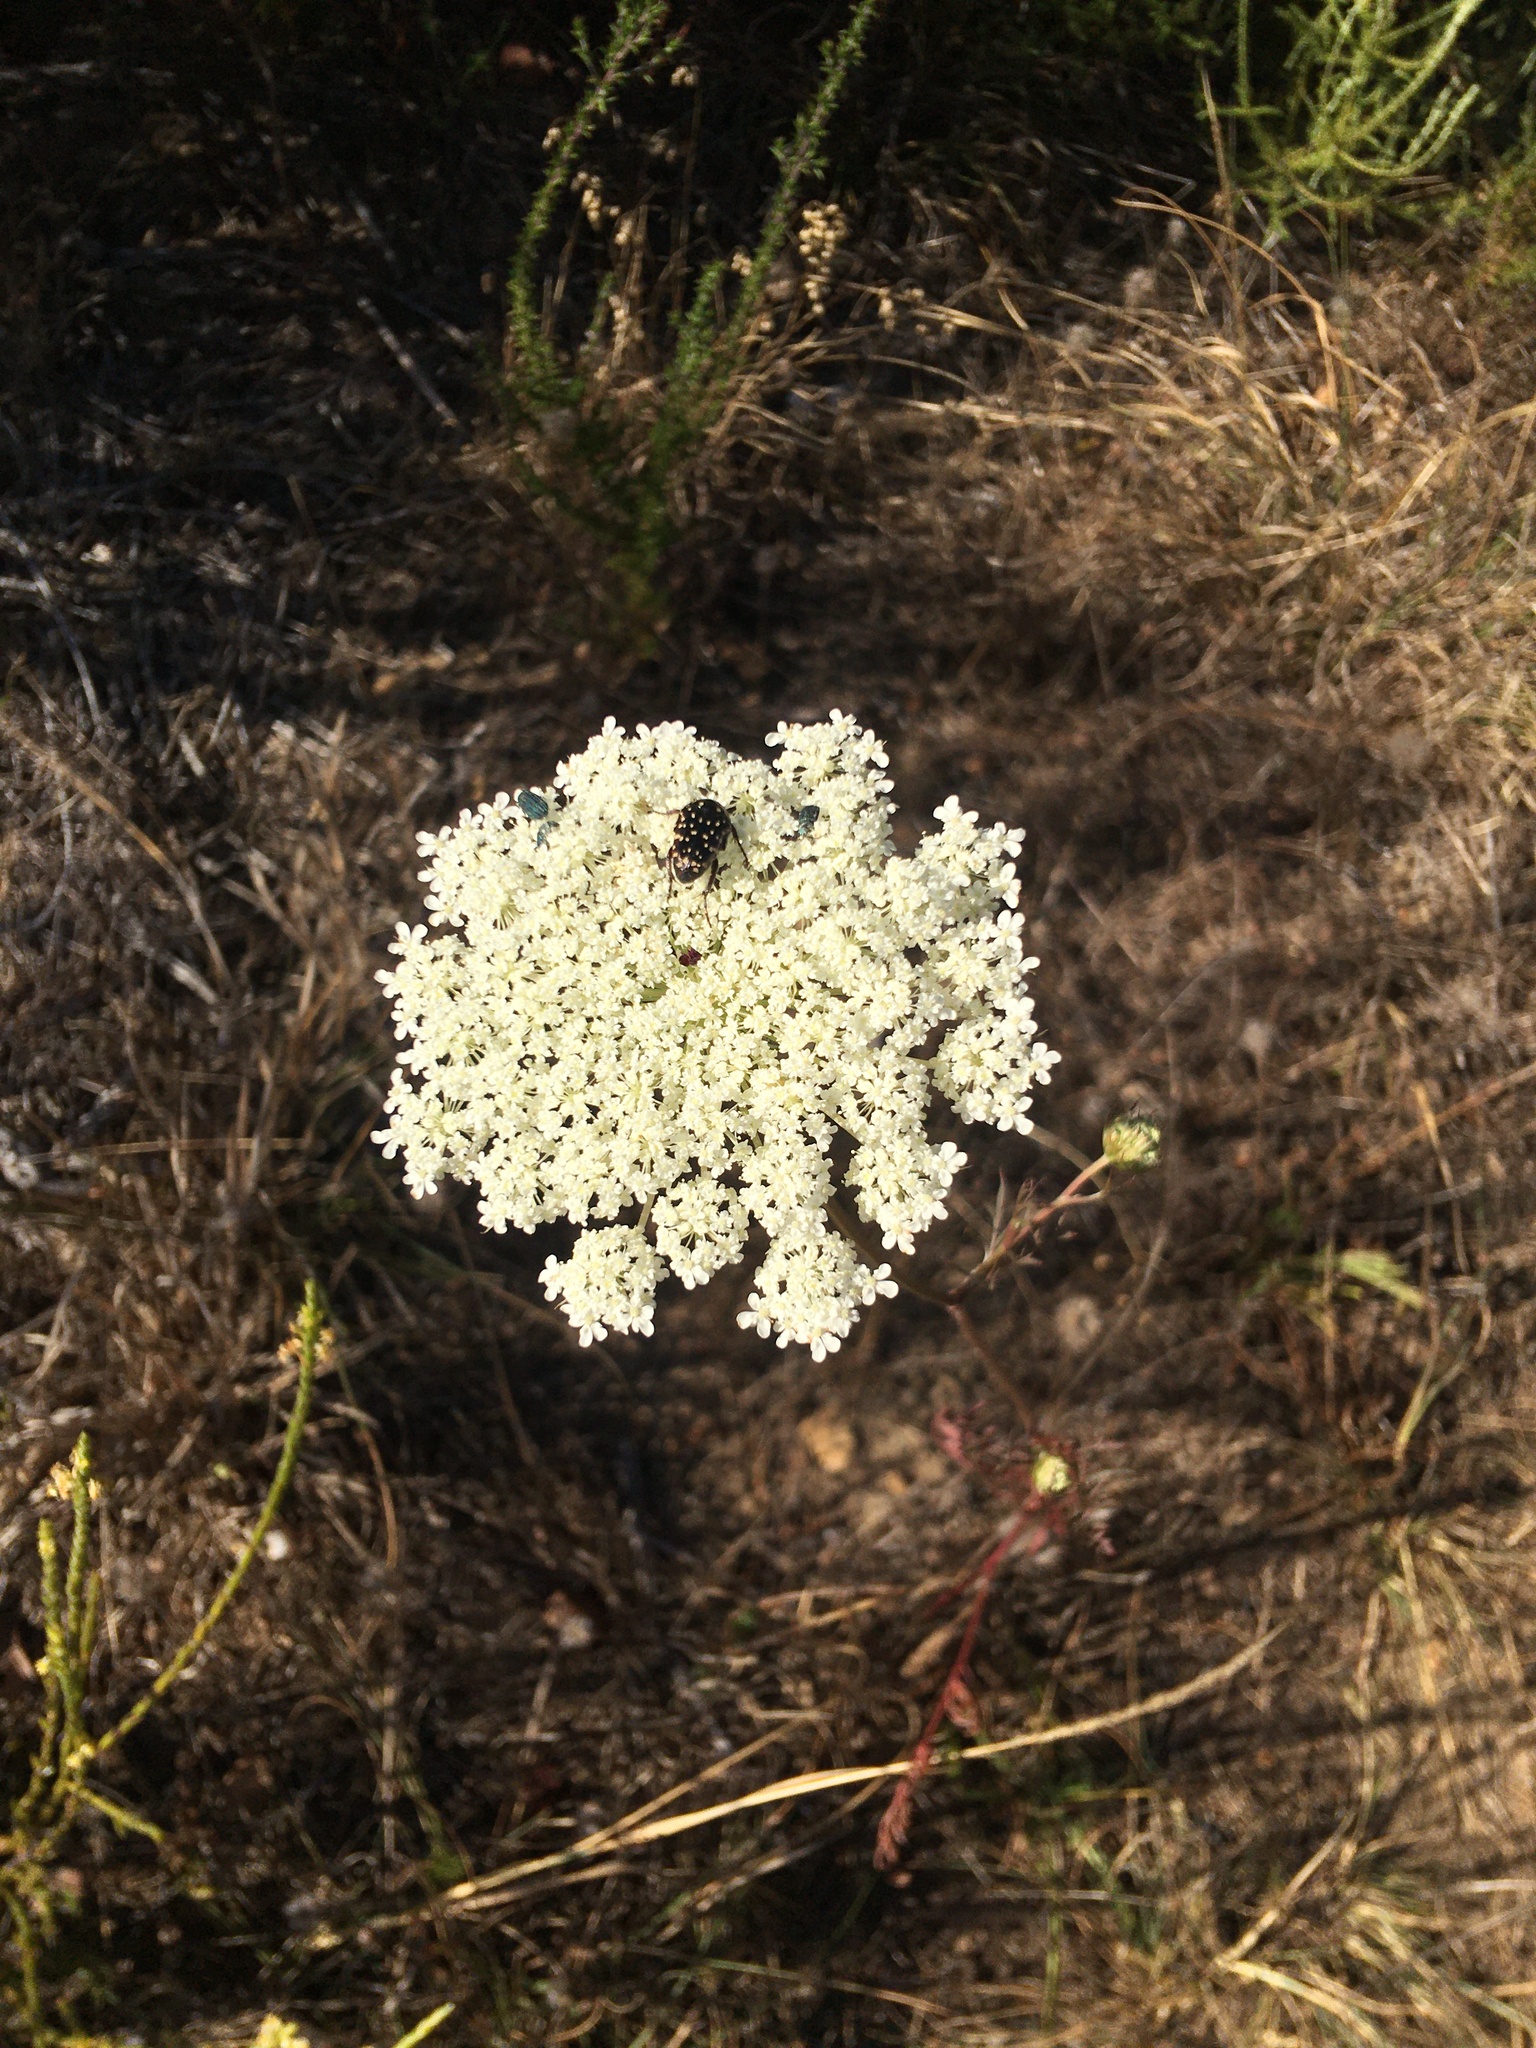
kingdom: Animalia
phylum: Arthropoda
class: Insecta
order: Coleoptera
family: Scarabaeidae
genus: Oxythyrea
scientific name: Oxythyrea
